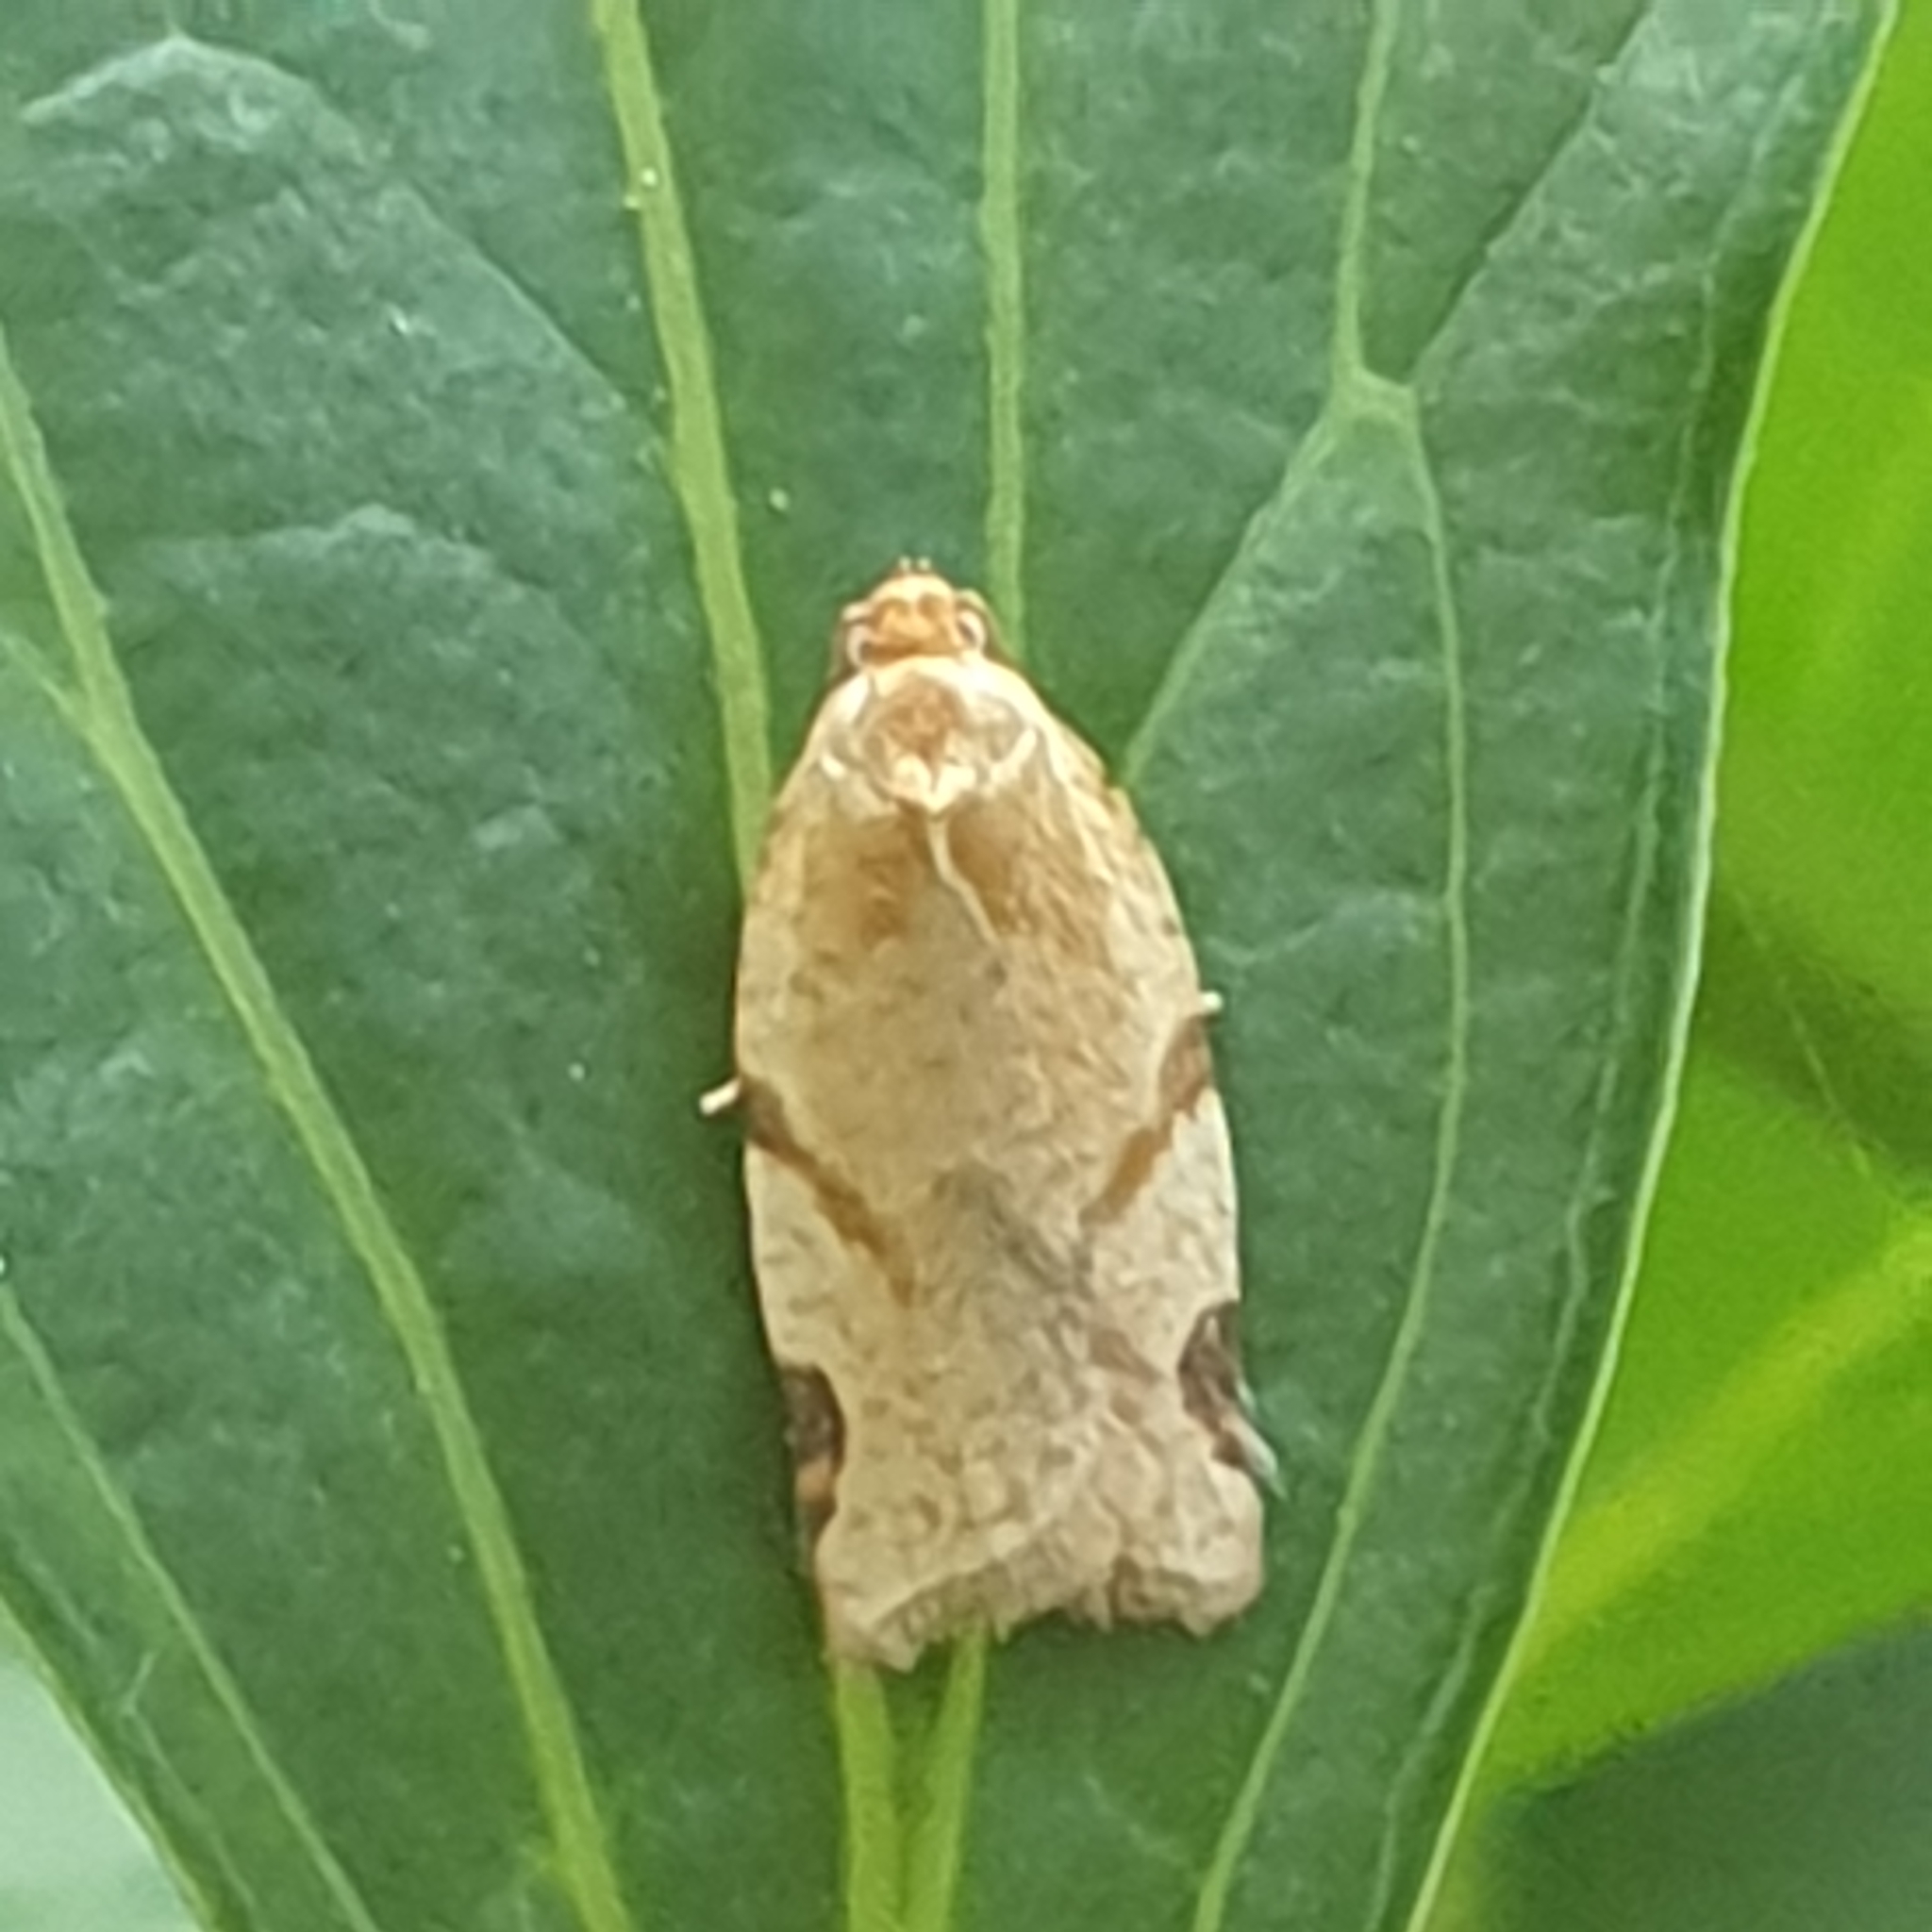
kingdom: Animalia
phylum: Arthropoda
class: Insecta
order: Lepidoptera
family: Tortricidae
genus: Paramesia
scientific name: Paramesia gnomana
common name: Small straw twist
